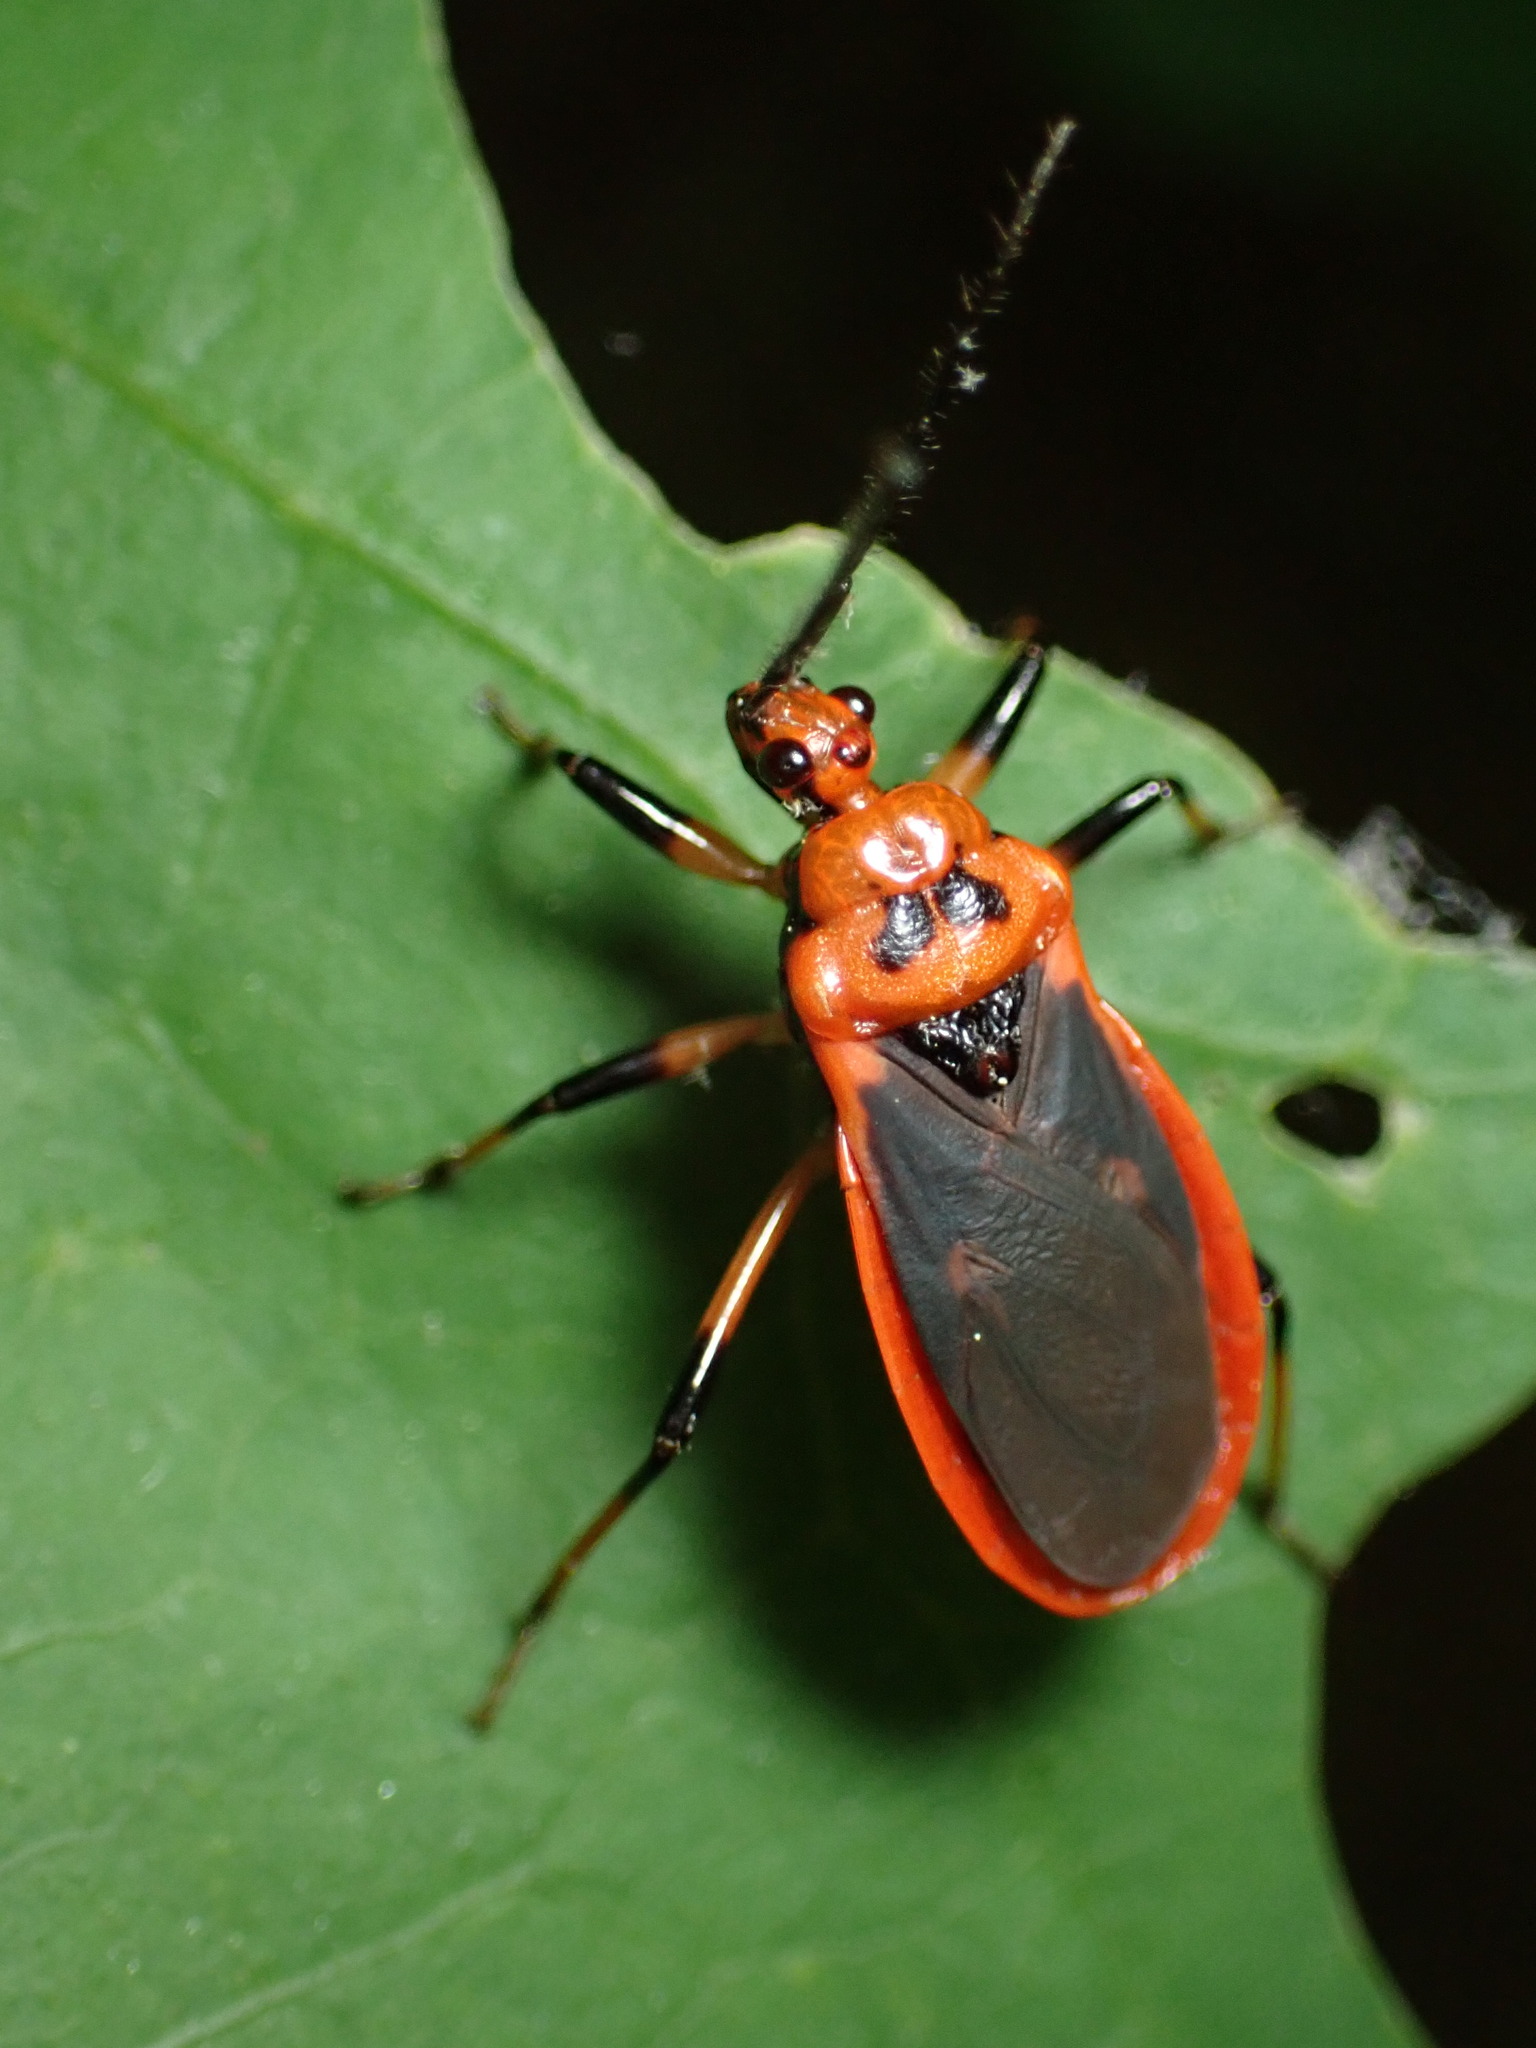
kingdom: Animalia
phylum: Arthropoda
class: Insecta
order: Hemiptera
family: Reduviidae
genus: Rhiginia
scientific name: Rhiginia cruciata
